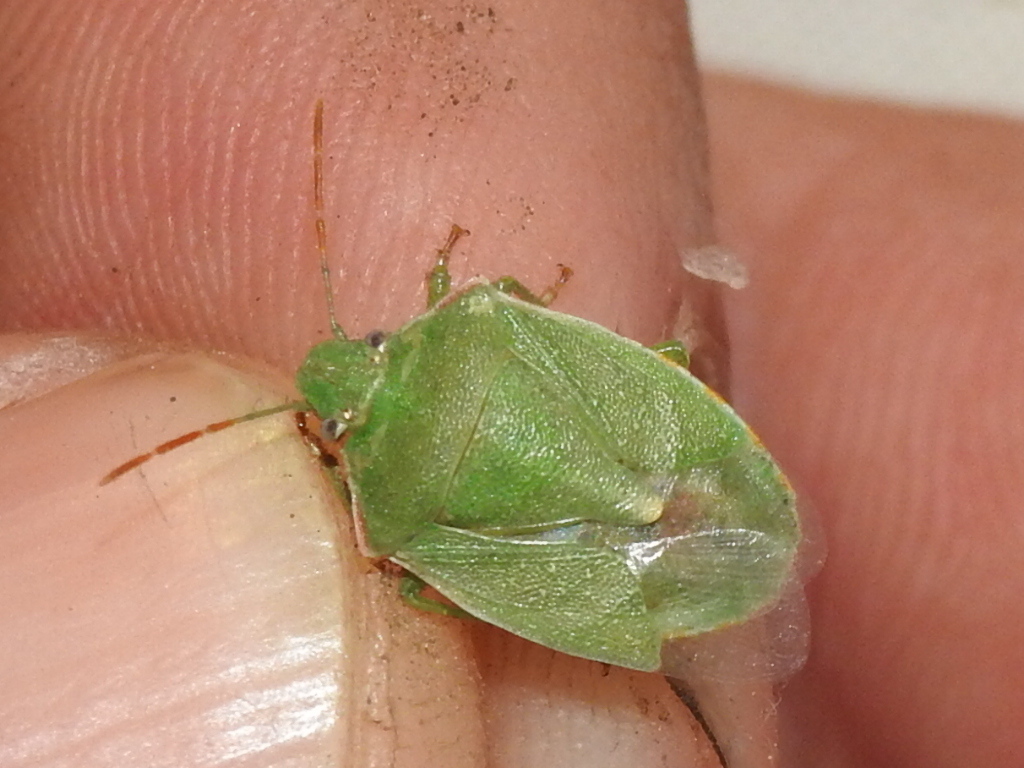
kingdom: Animalia
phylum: Arthropoda
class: Insecta
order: Hemiptera
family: Pentatomidae
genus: Thyanta
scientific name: Thyanta custator
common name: Stink bug
